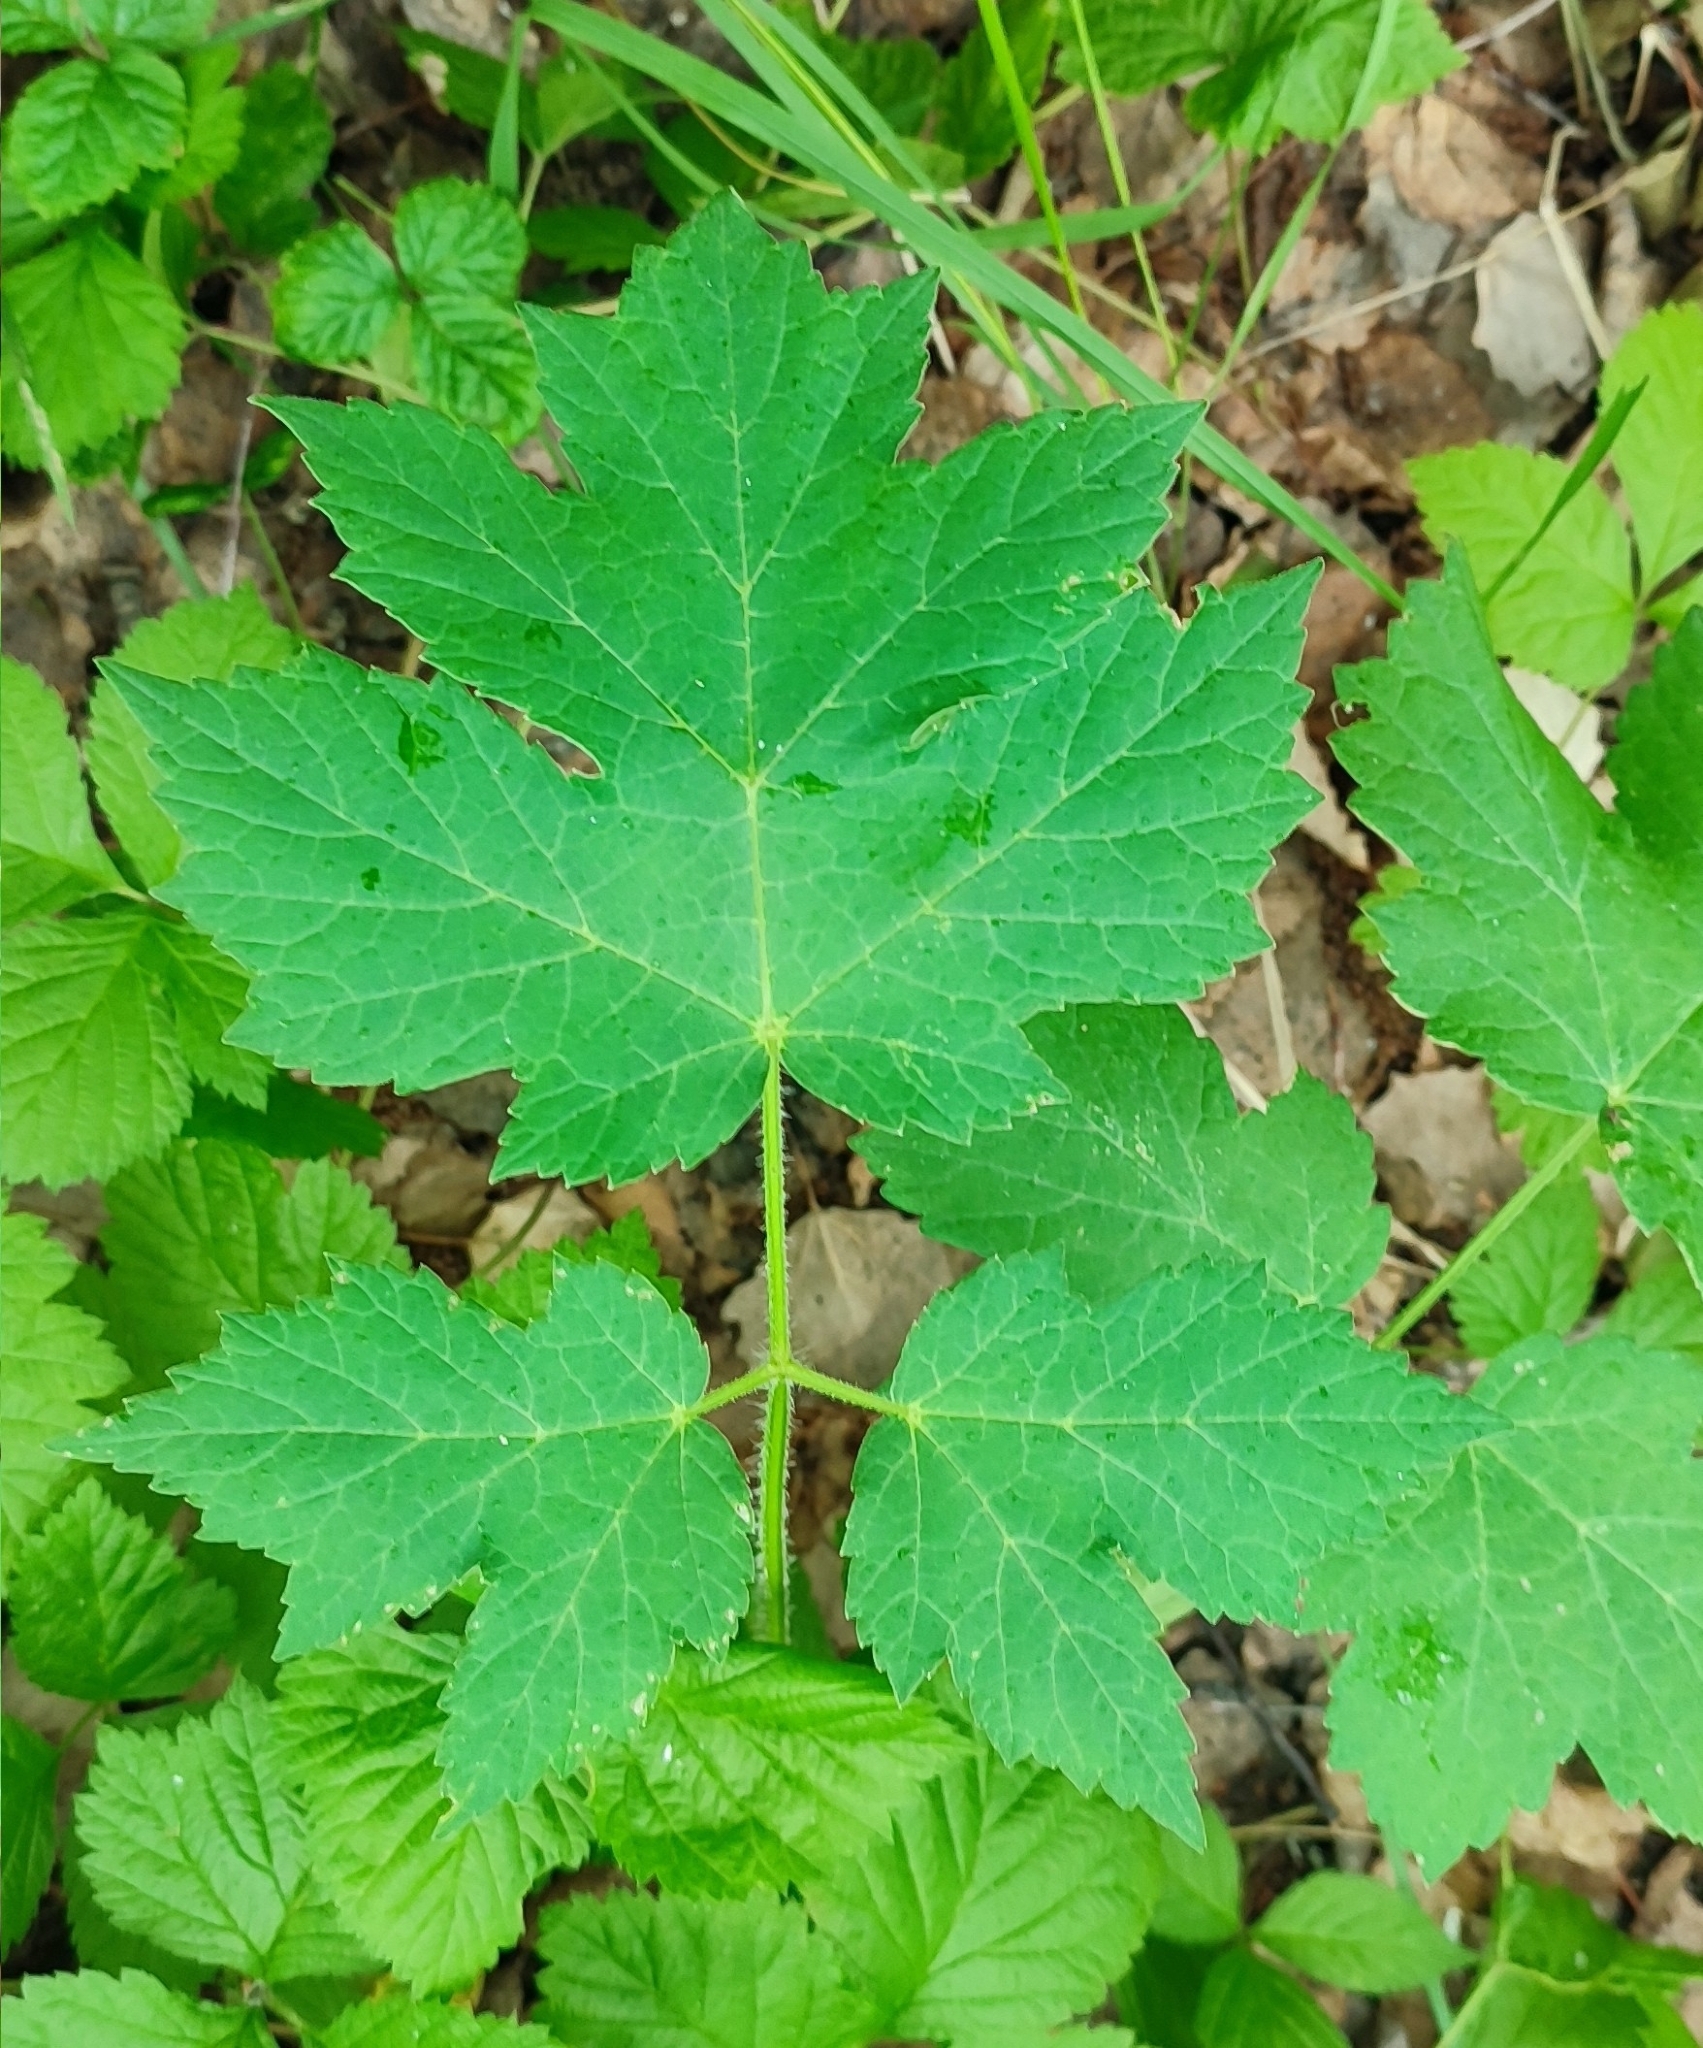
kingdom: Plantae
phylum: Tracheophyta
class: Magnoliopsida
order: Apiales
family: Apiaceae
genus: Heracleum
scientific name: Heracleum sphondylium
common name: Hogweed
